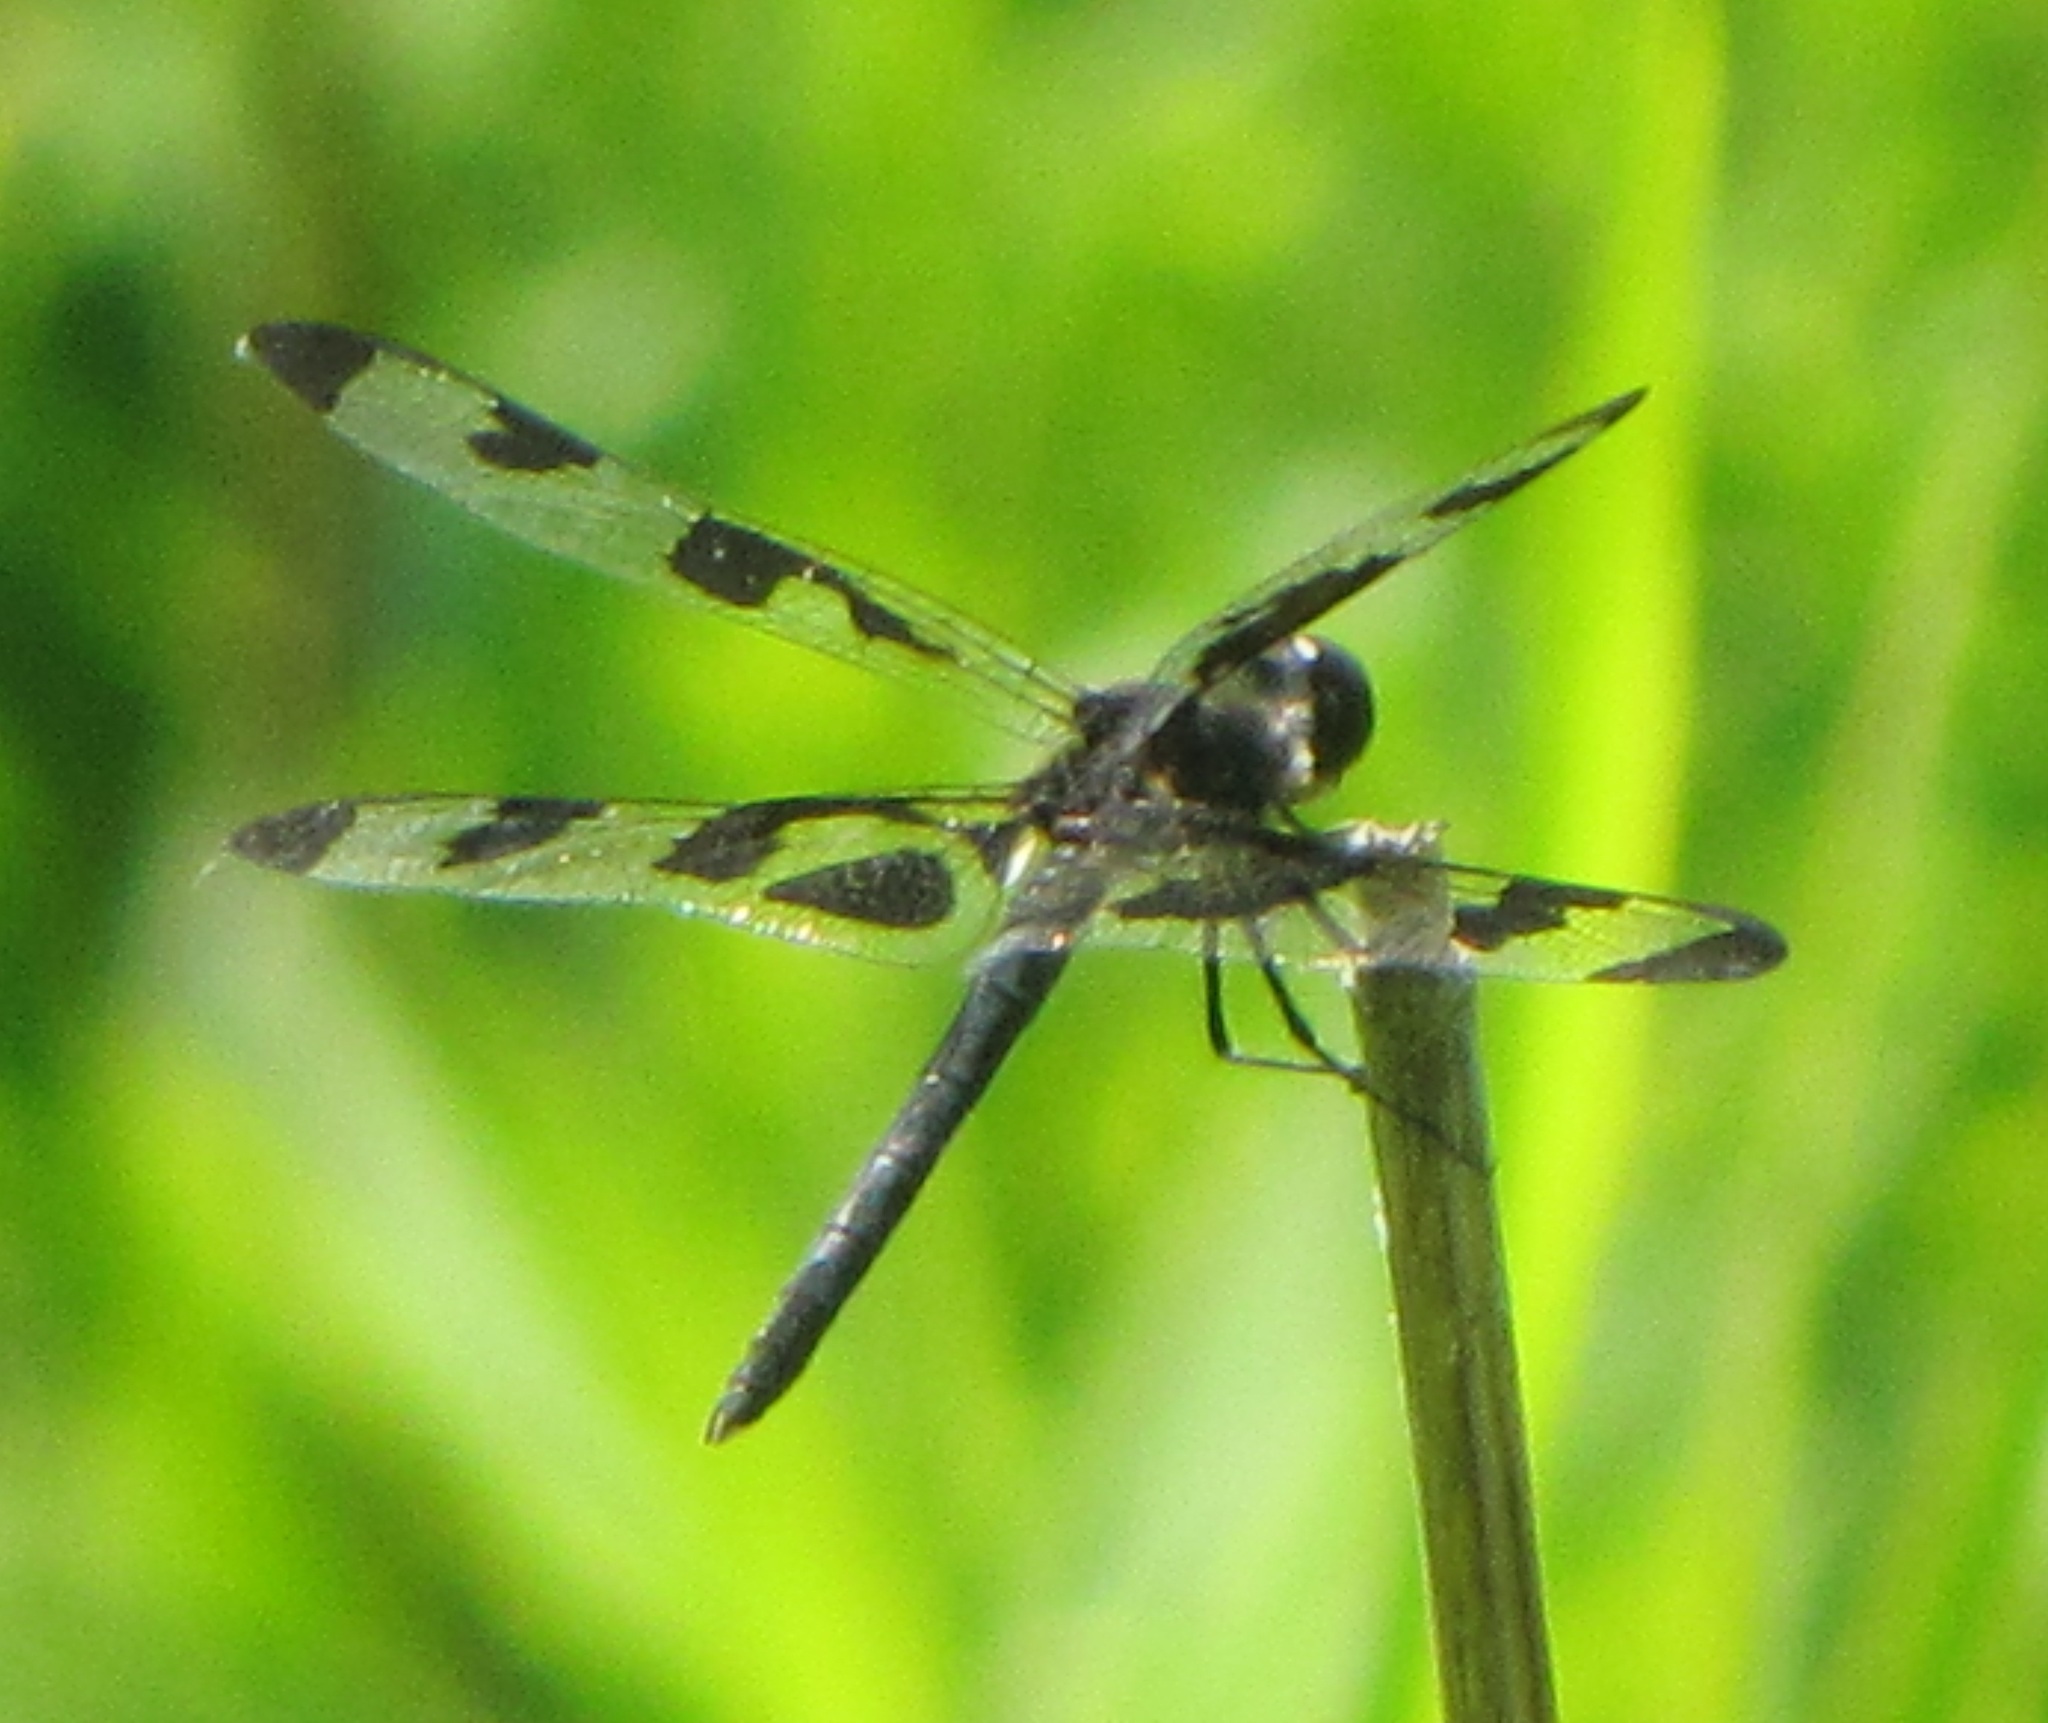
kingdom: Animalia
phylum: Arthropoda
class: Insecta
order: Odonata
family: Libellulidae
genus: Celithemis
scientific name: Celithemis fasciata
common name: Banded pennant
